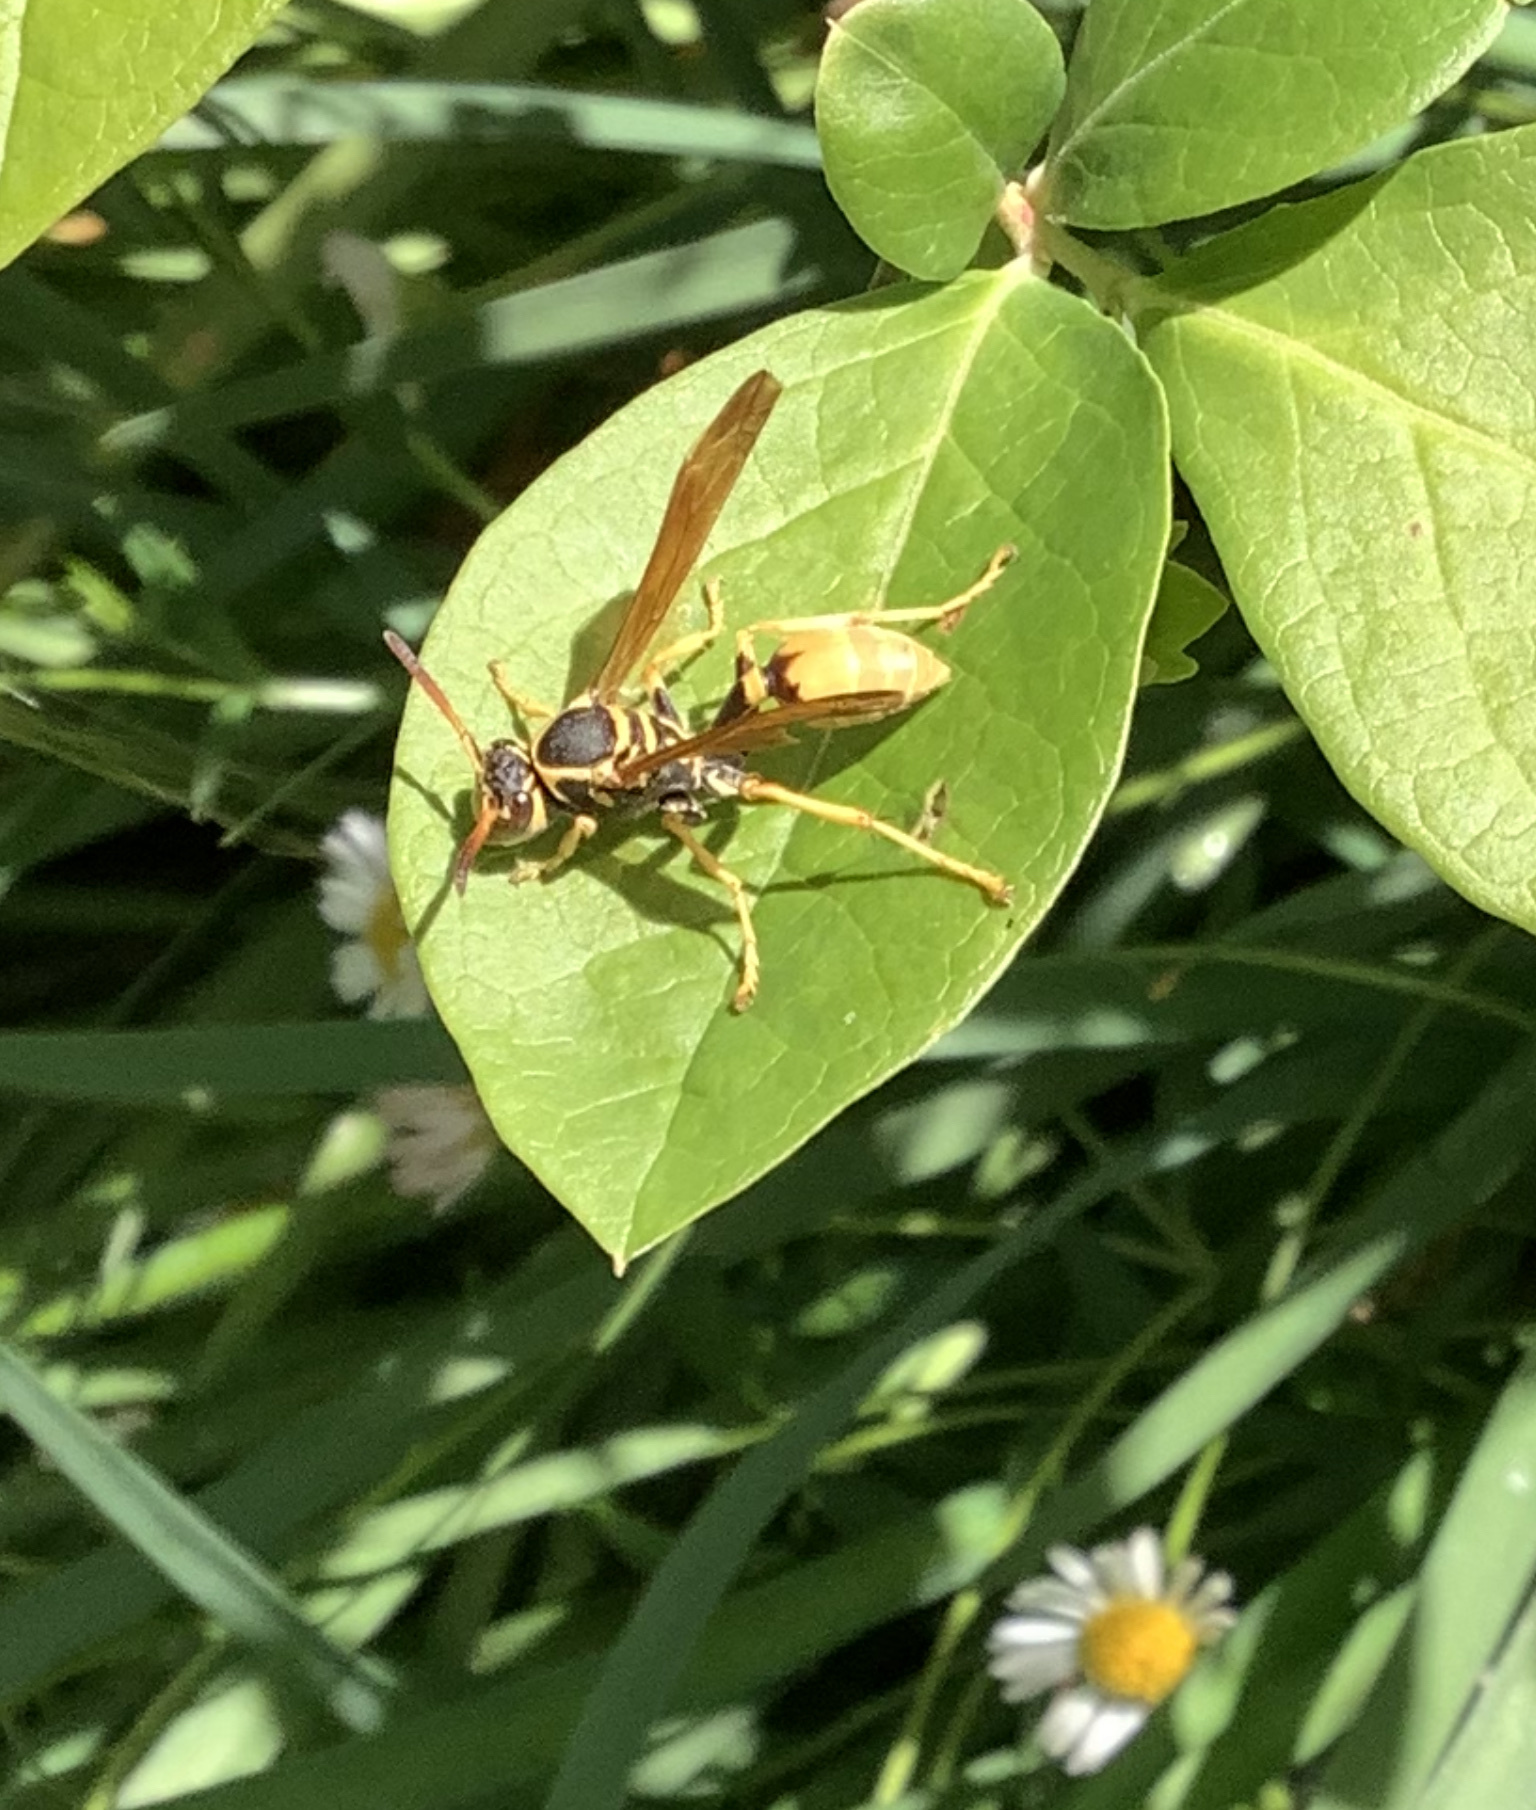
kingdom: Animalia
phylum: Arthropoda
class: Insecta
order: Hymenoptera
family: Vespidae
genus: Mischocyttarus
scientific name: Mischocyttarus flavitarsis
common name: Wasp
